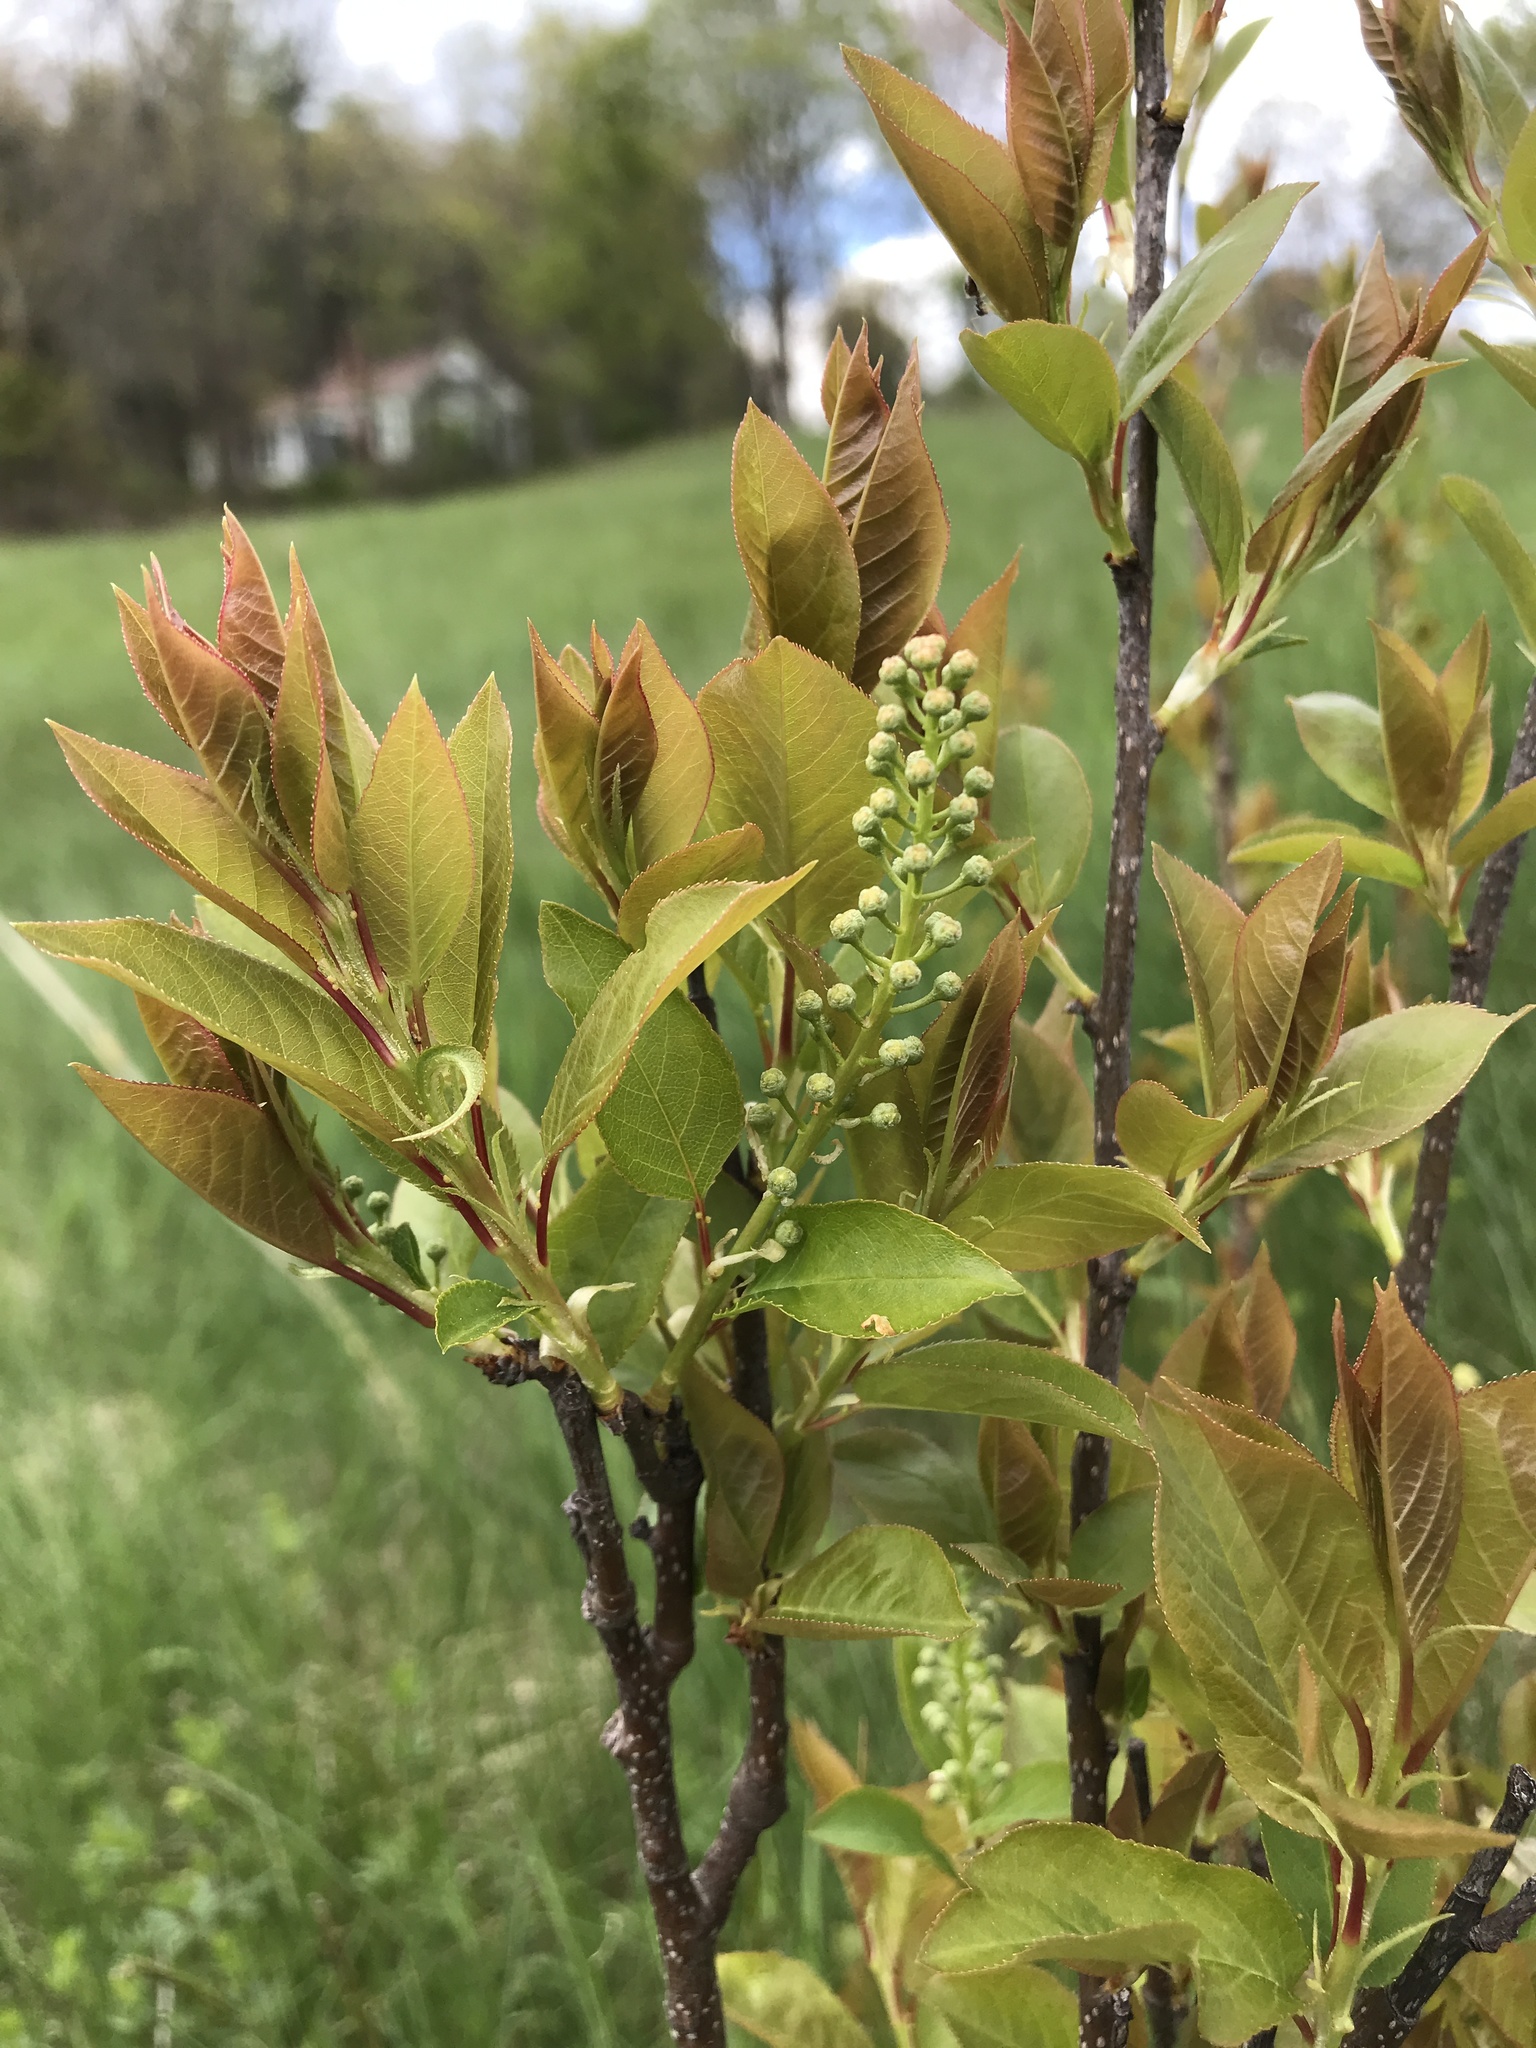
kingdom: Plantae
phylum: Tracheophyta
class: Magnoliopsida
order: Rosales
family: Rosaceae
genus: Prunus
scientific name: Prunus virginiana
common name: Chokecherry
